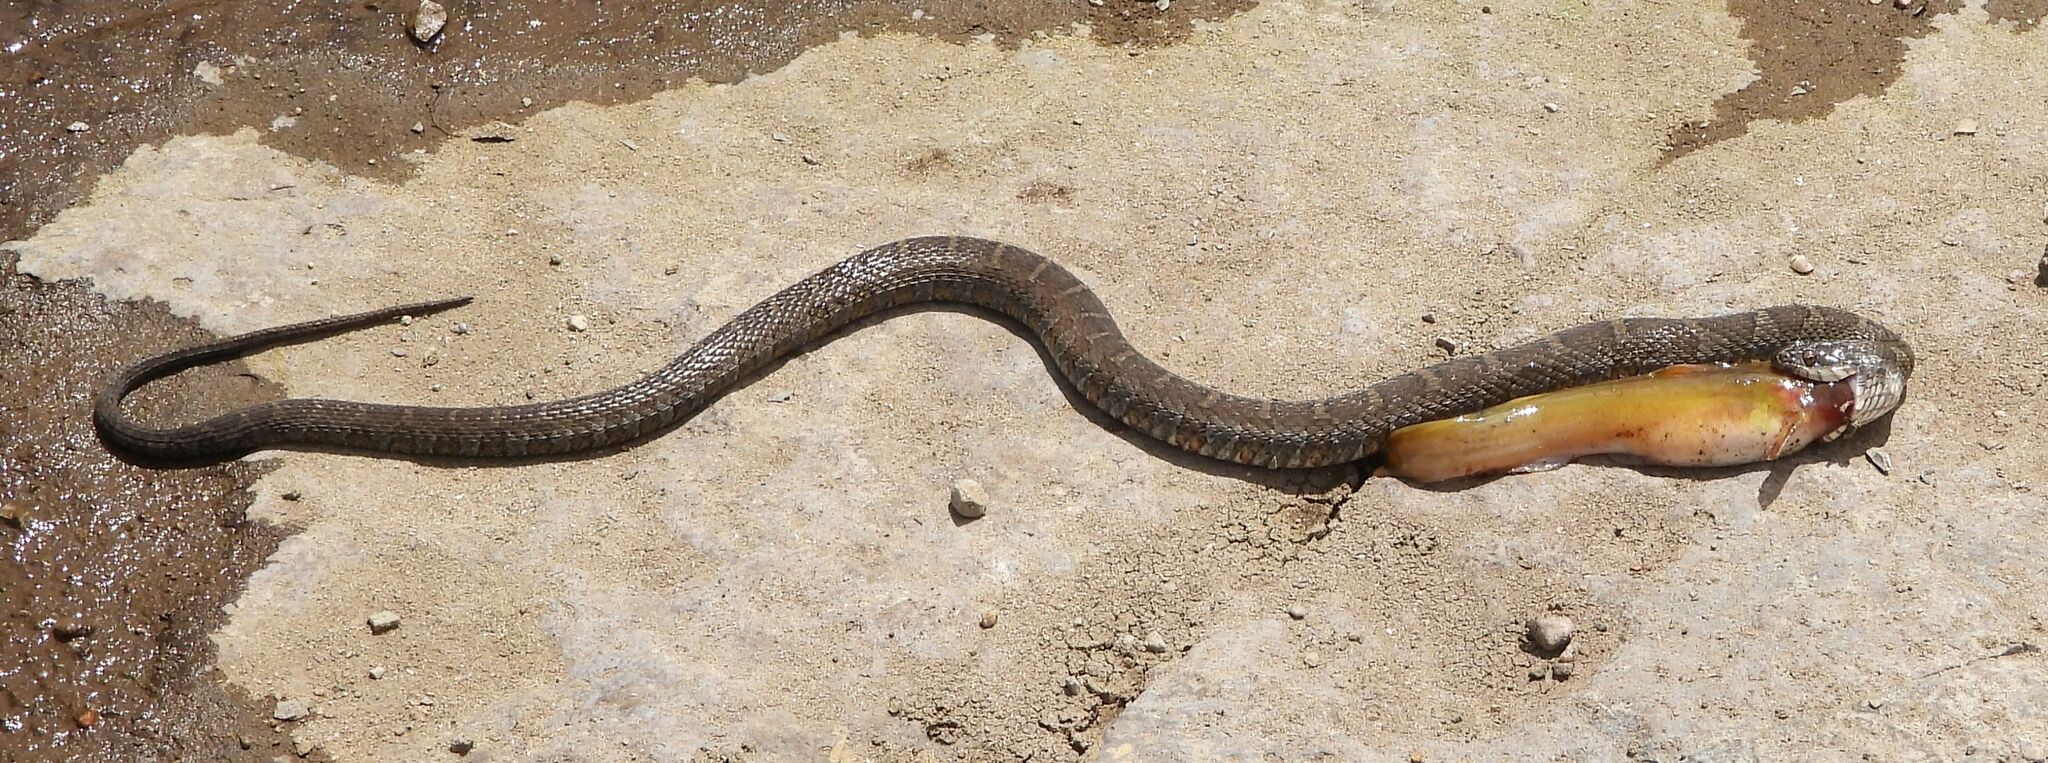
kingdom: Animalia
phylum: Chordata
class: Squamata
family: Colubridae
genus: Nerodia
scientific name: Nerodia sipedon
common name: Northern water snake
